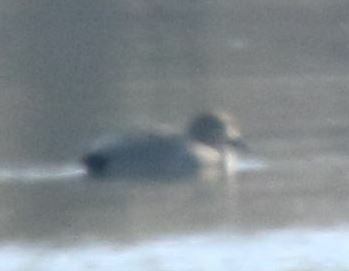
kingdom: Animalia
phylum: Chordata
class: Aves
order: Anseriformes
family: Anatidae
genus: Mareca
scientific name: Mareca strepera
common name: Gadwall
